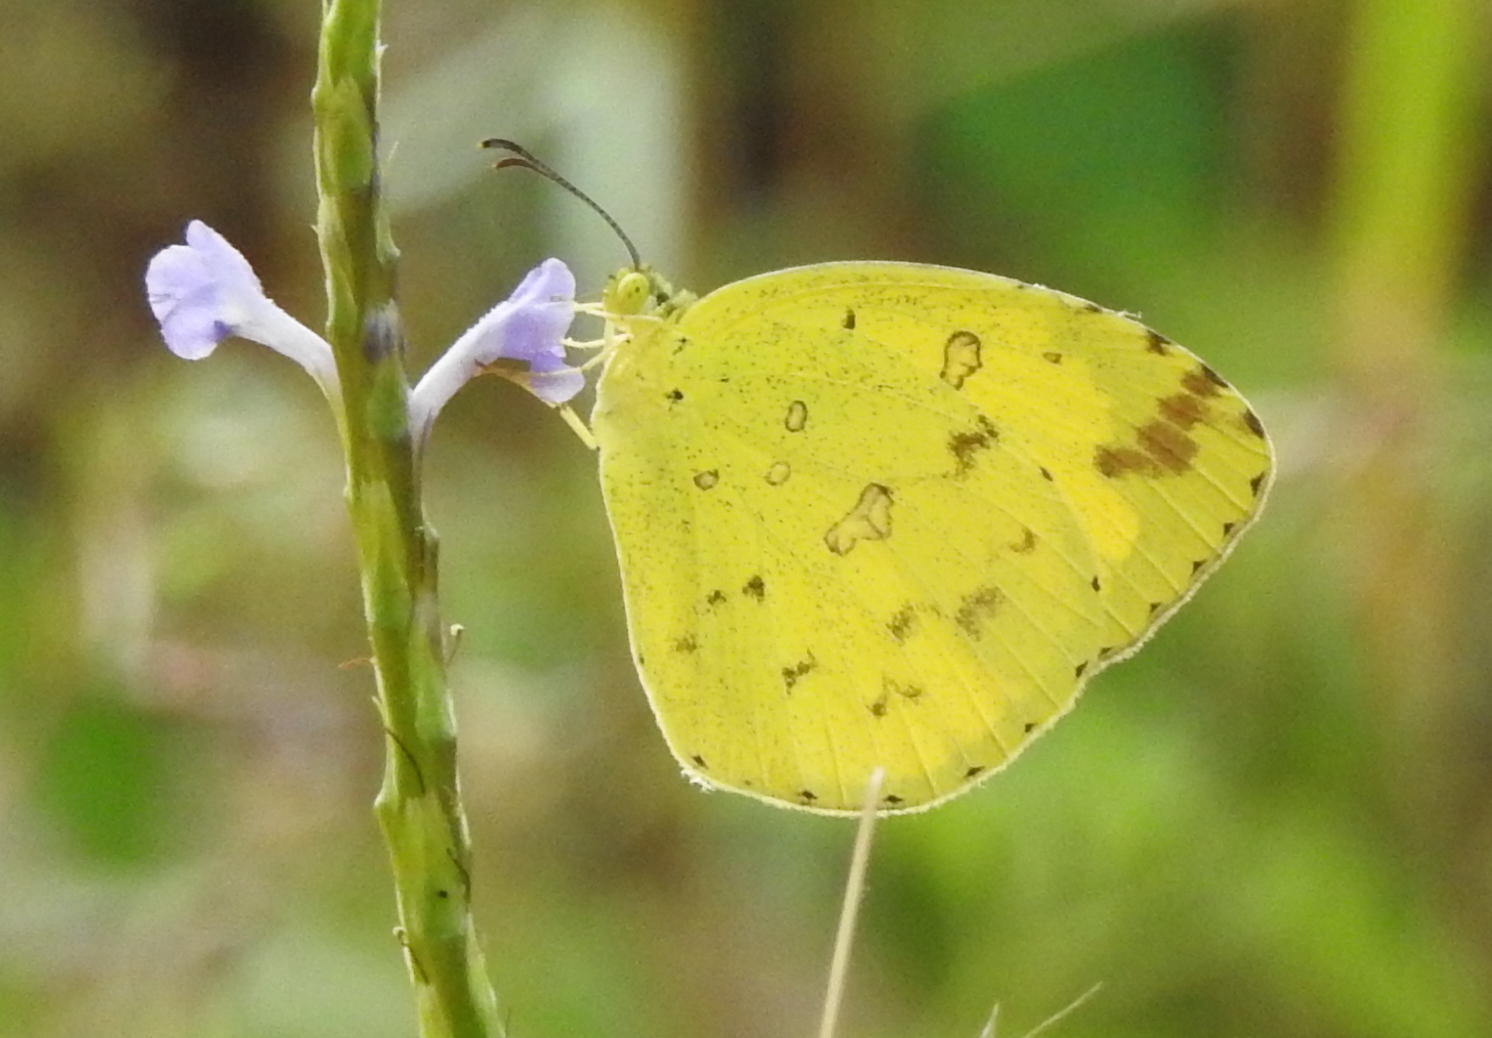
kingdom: Animalia
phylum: Arthropoda
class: Insecta
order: Lepidoptera
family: Pieridae
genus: Eurema
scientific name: Eurema hecabe
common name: Pale grass yellow
